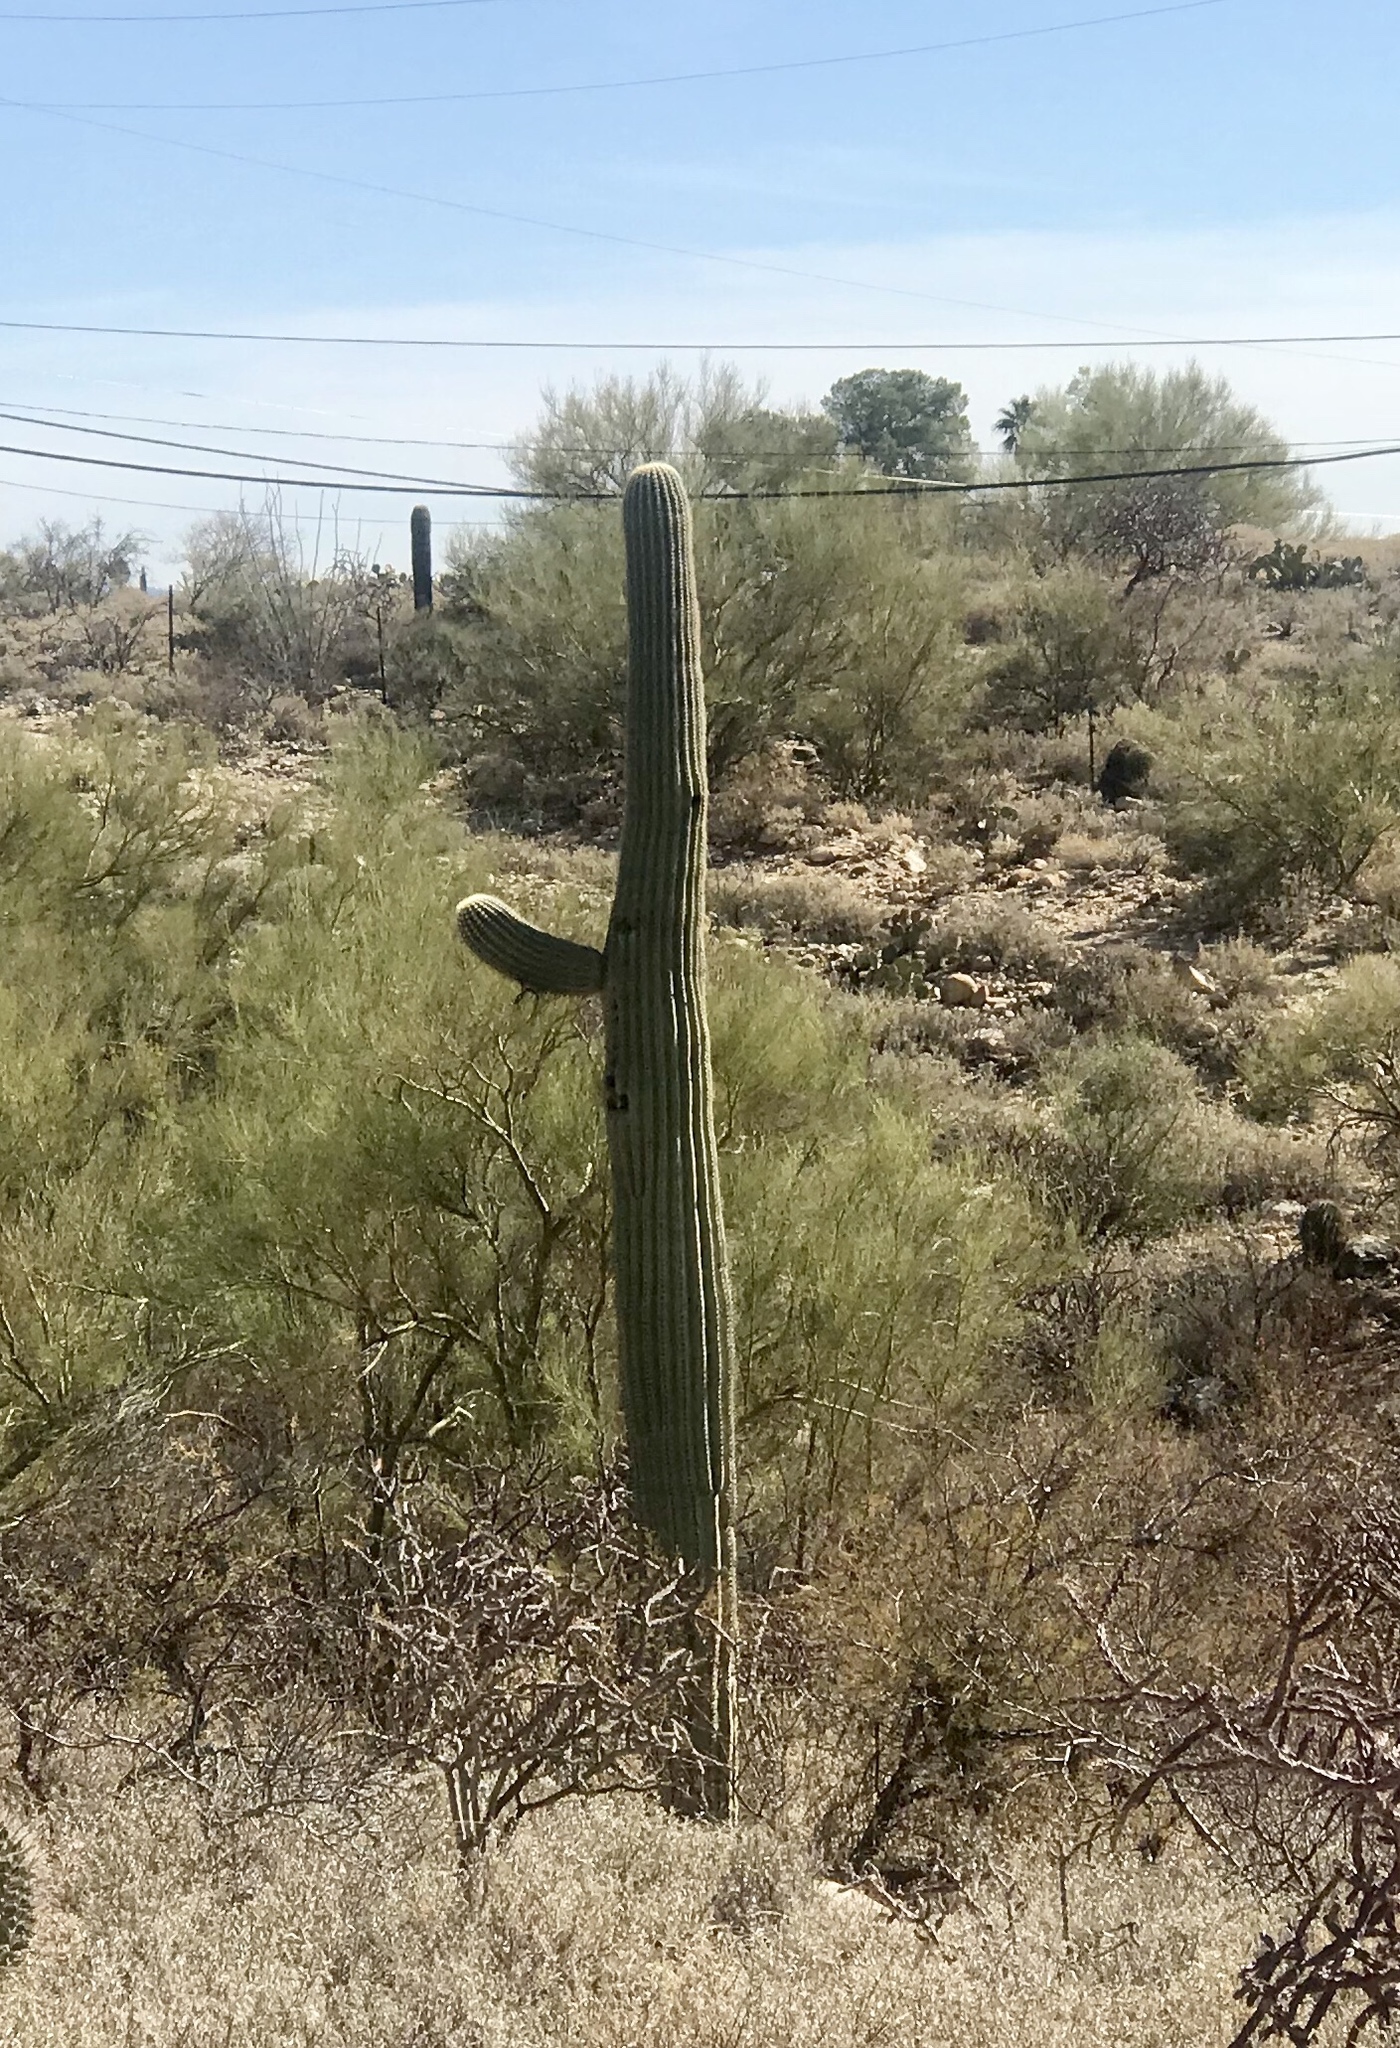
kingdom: Plantae
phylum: Tracheophyta
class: Magnoliopsida
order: Caryophyllales
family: Cactaceae
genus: Carnegiea
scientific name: Carnegiea gigantea
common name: Saguaro
